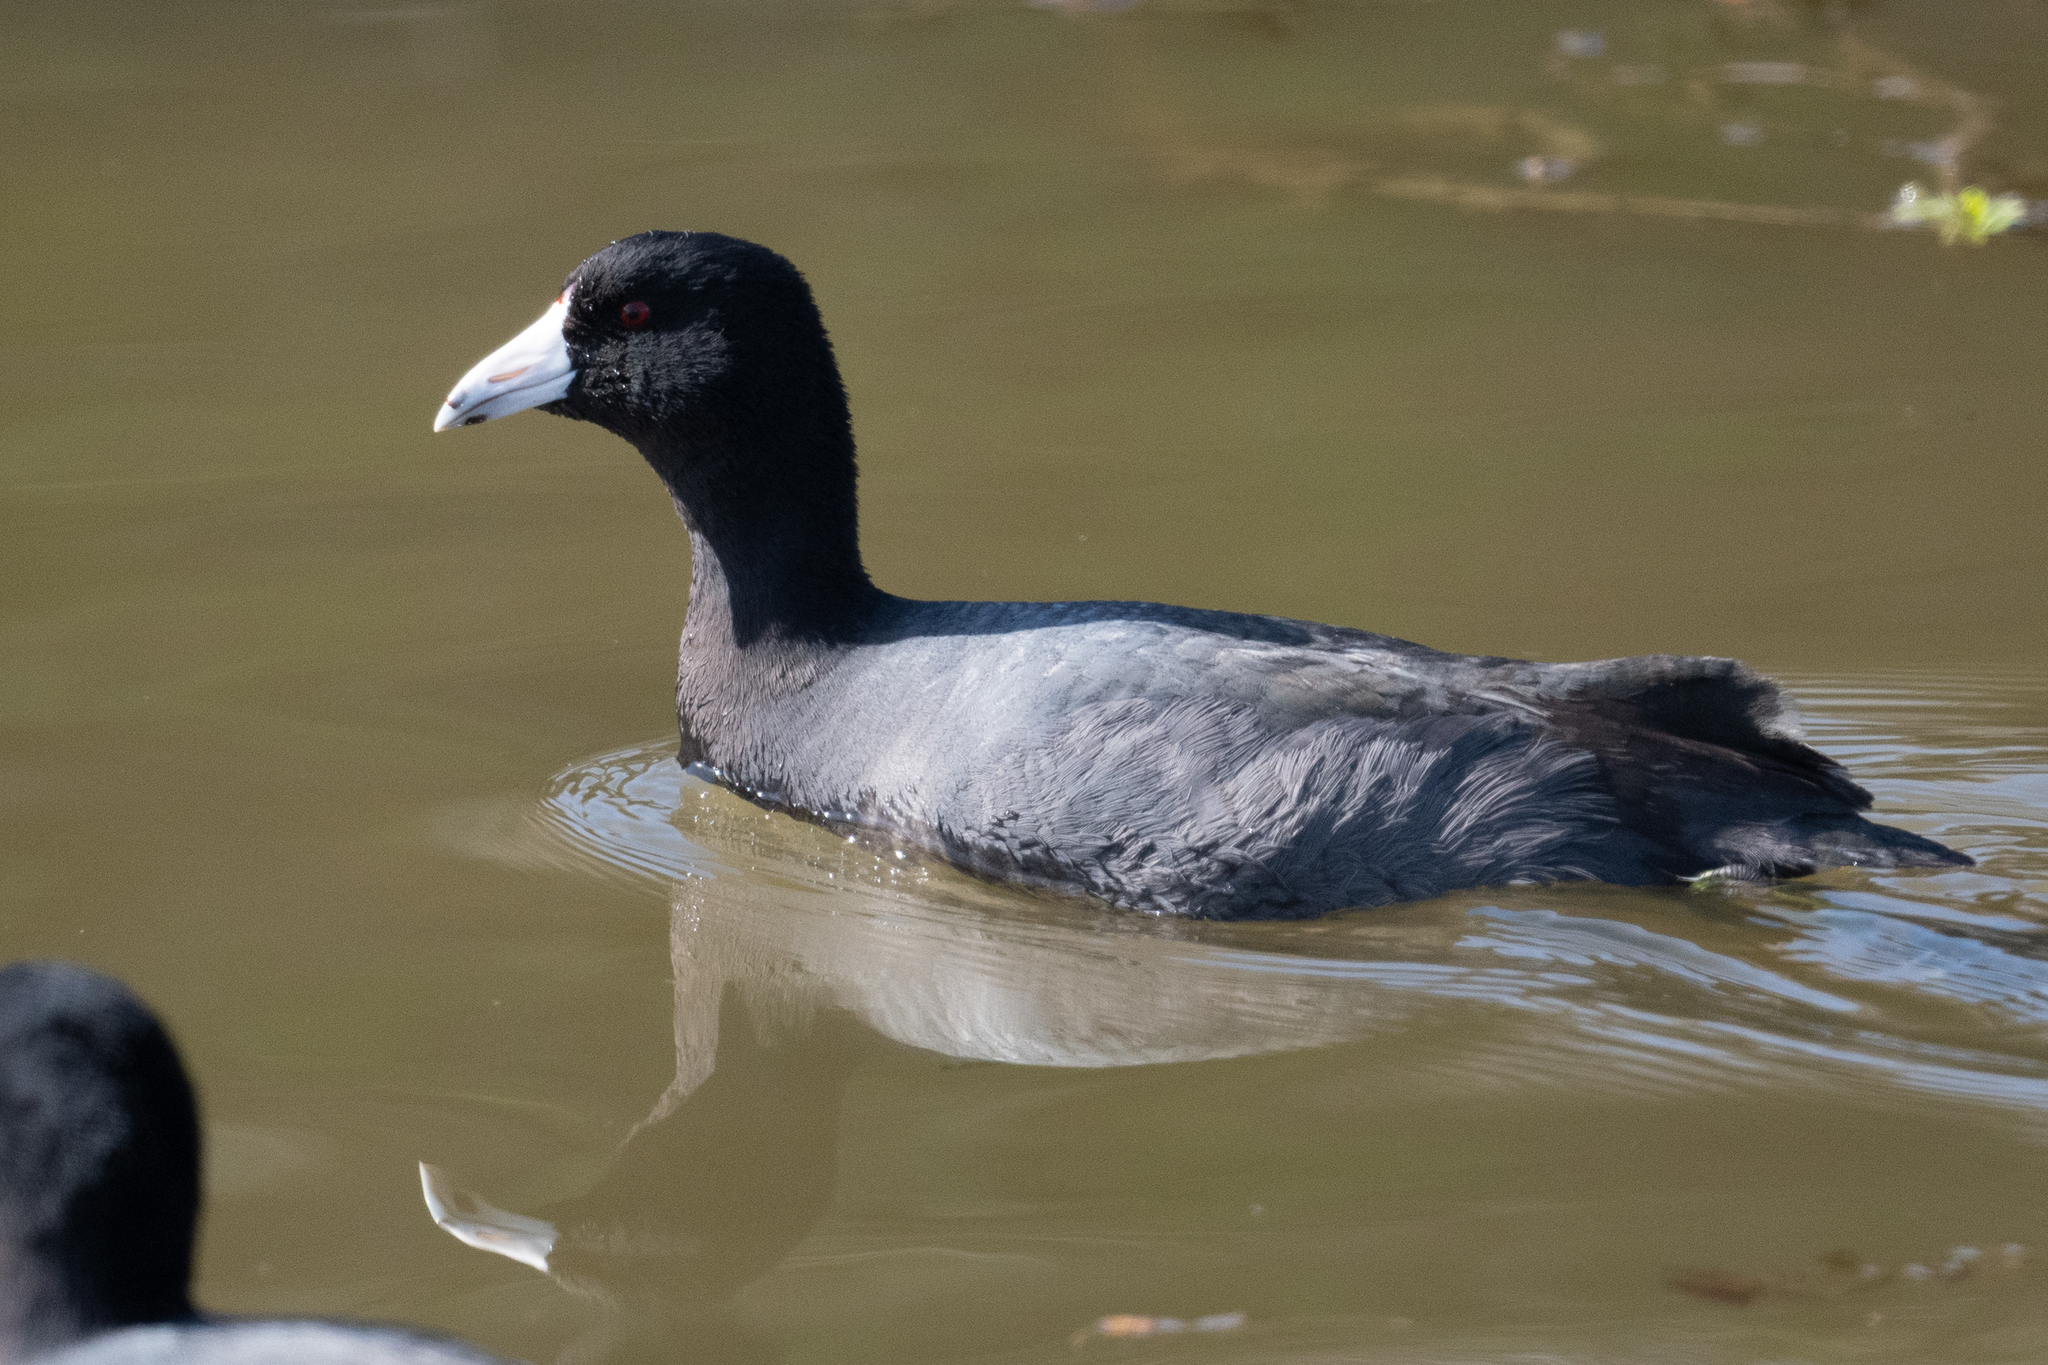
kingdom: Animalia
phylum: Chordata
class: Aves
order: Gruiformes
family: Rallidae
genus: Fulica
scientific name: Fulica americana
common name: American coot
